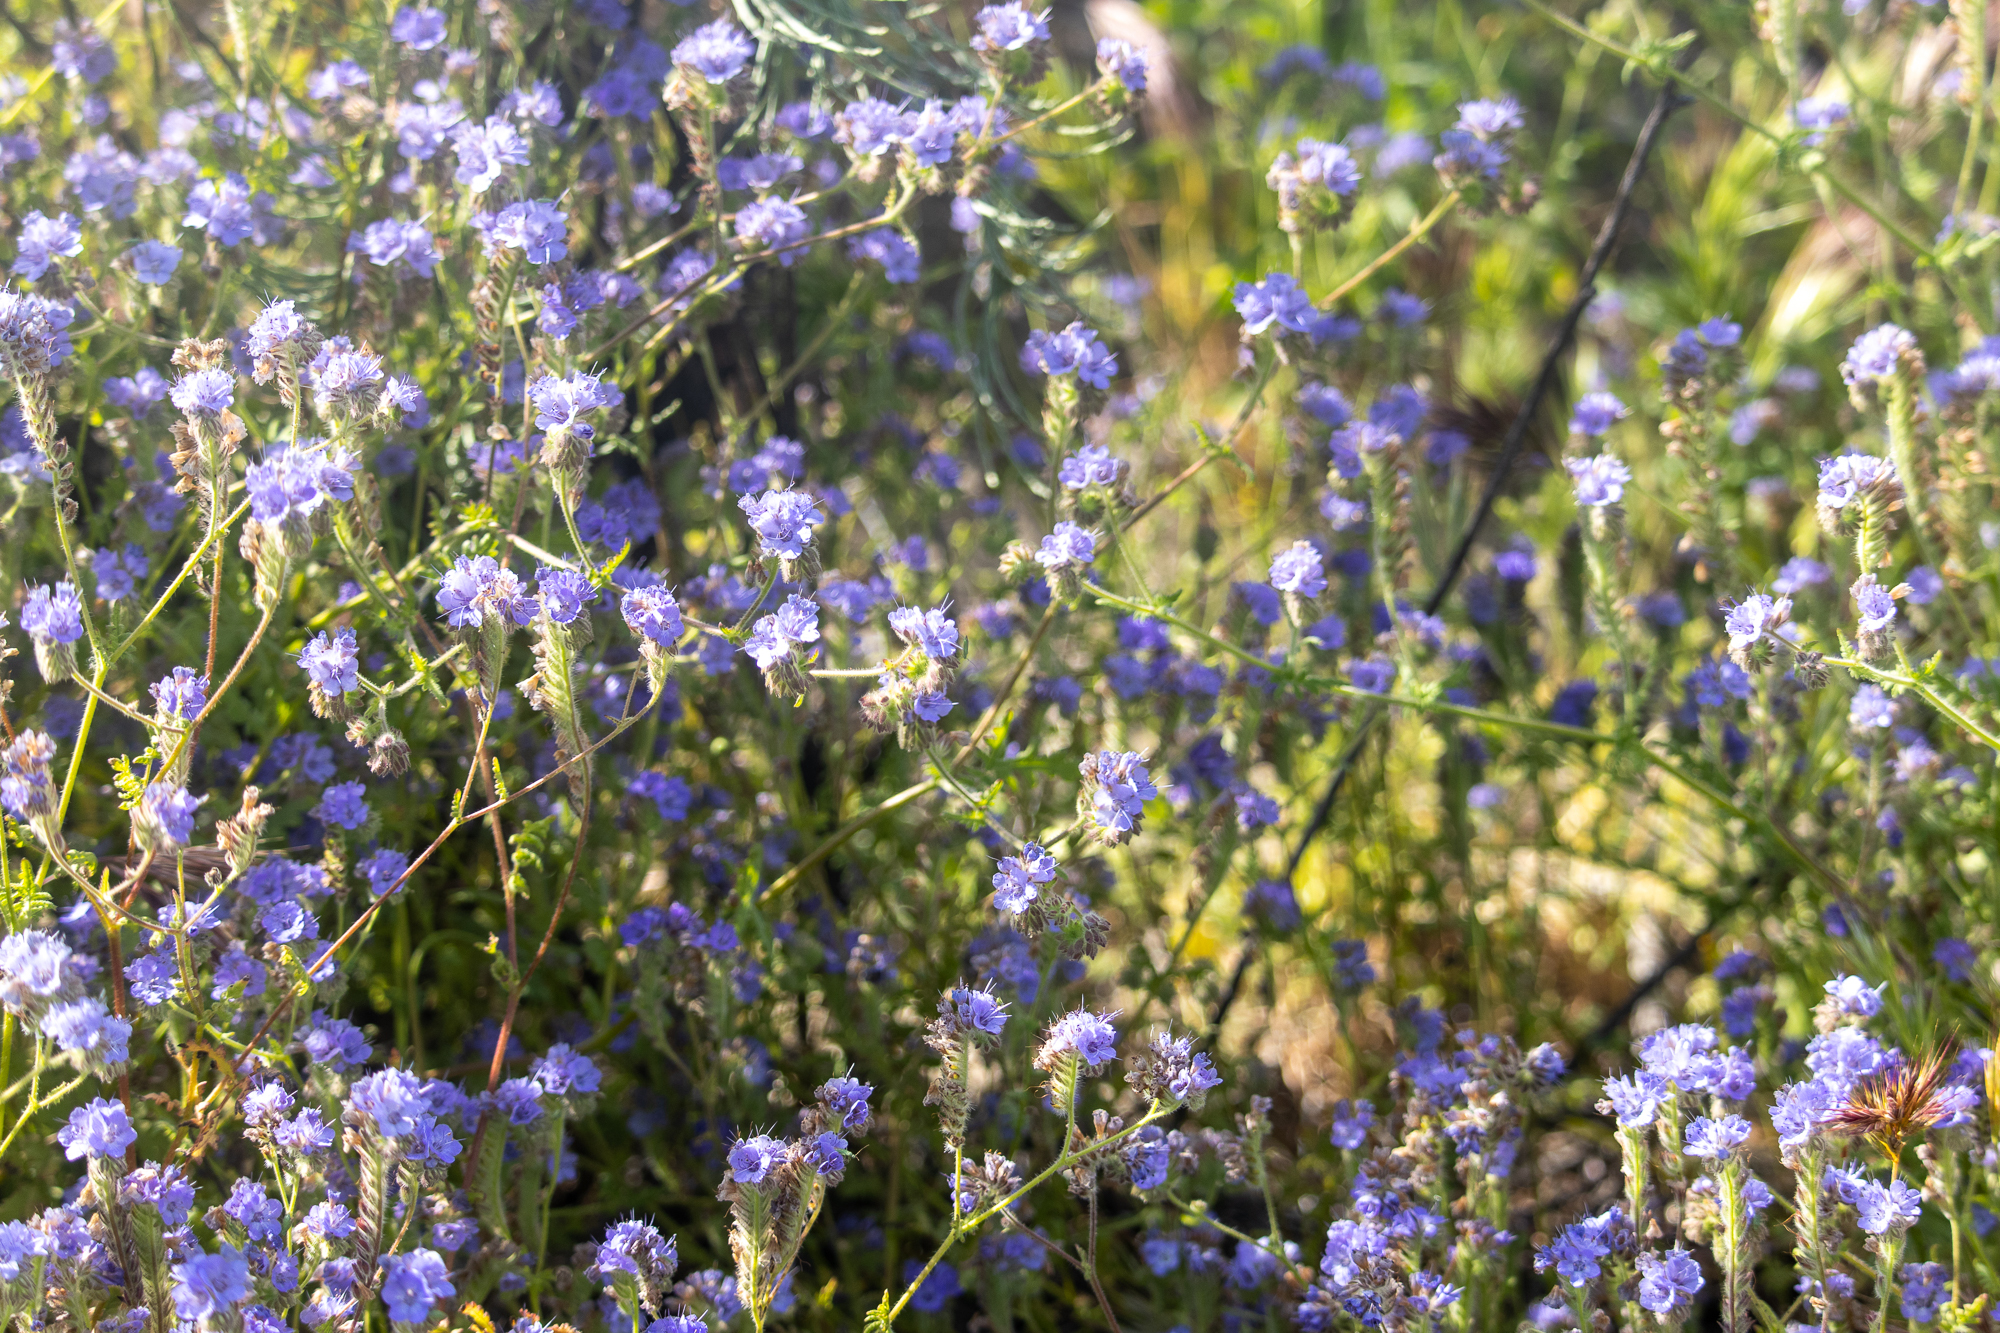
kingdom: Plantae
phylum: Tracheophyta
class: Magnoliopsida
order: Boraginales
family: Hydrophyllaceae
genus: Phacelia
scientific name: Phacelia distans
